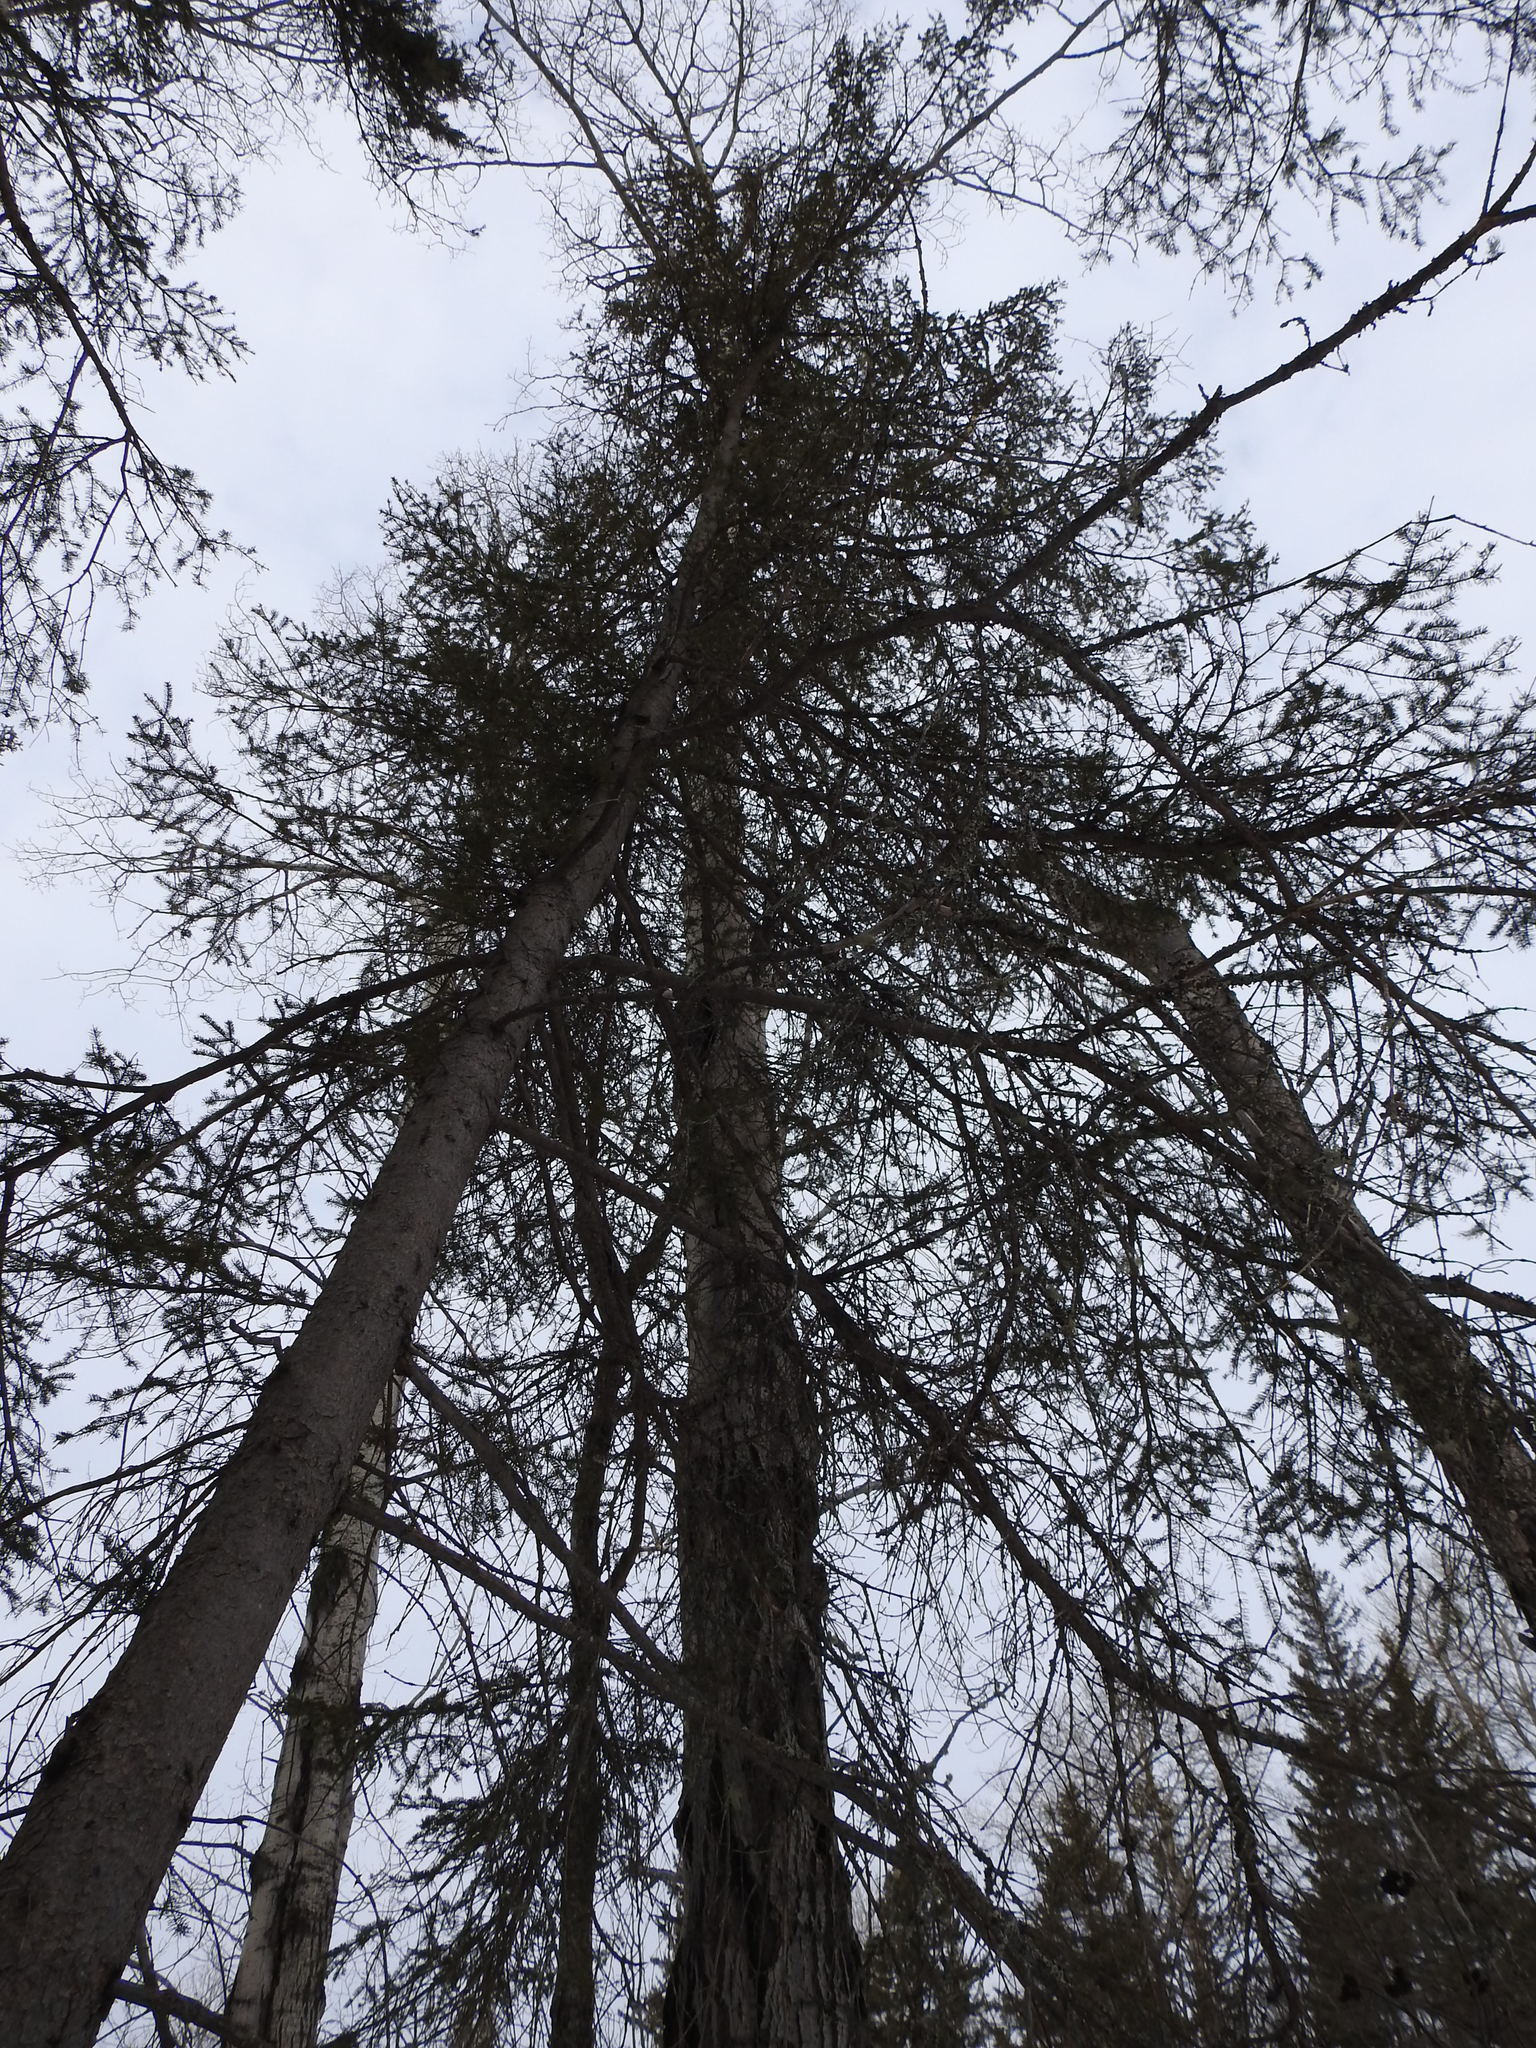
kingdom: Plantae
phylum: Tracheophyta
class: Pinopsida
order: Pinales
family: Pinaceae
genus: Picea
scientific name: Picea glauca
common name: White spruce
